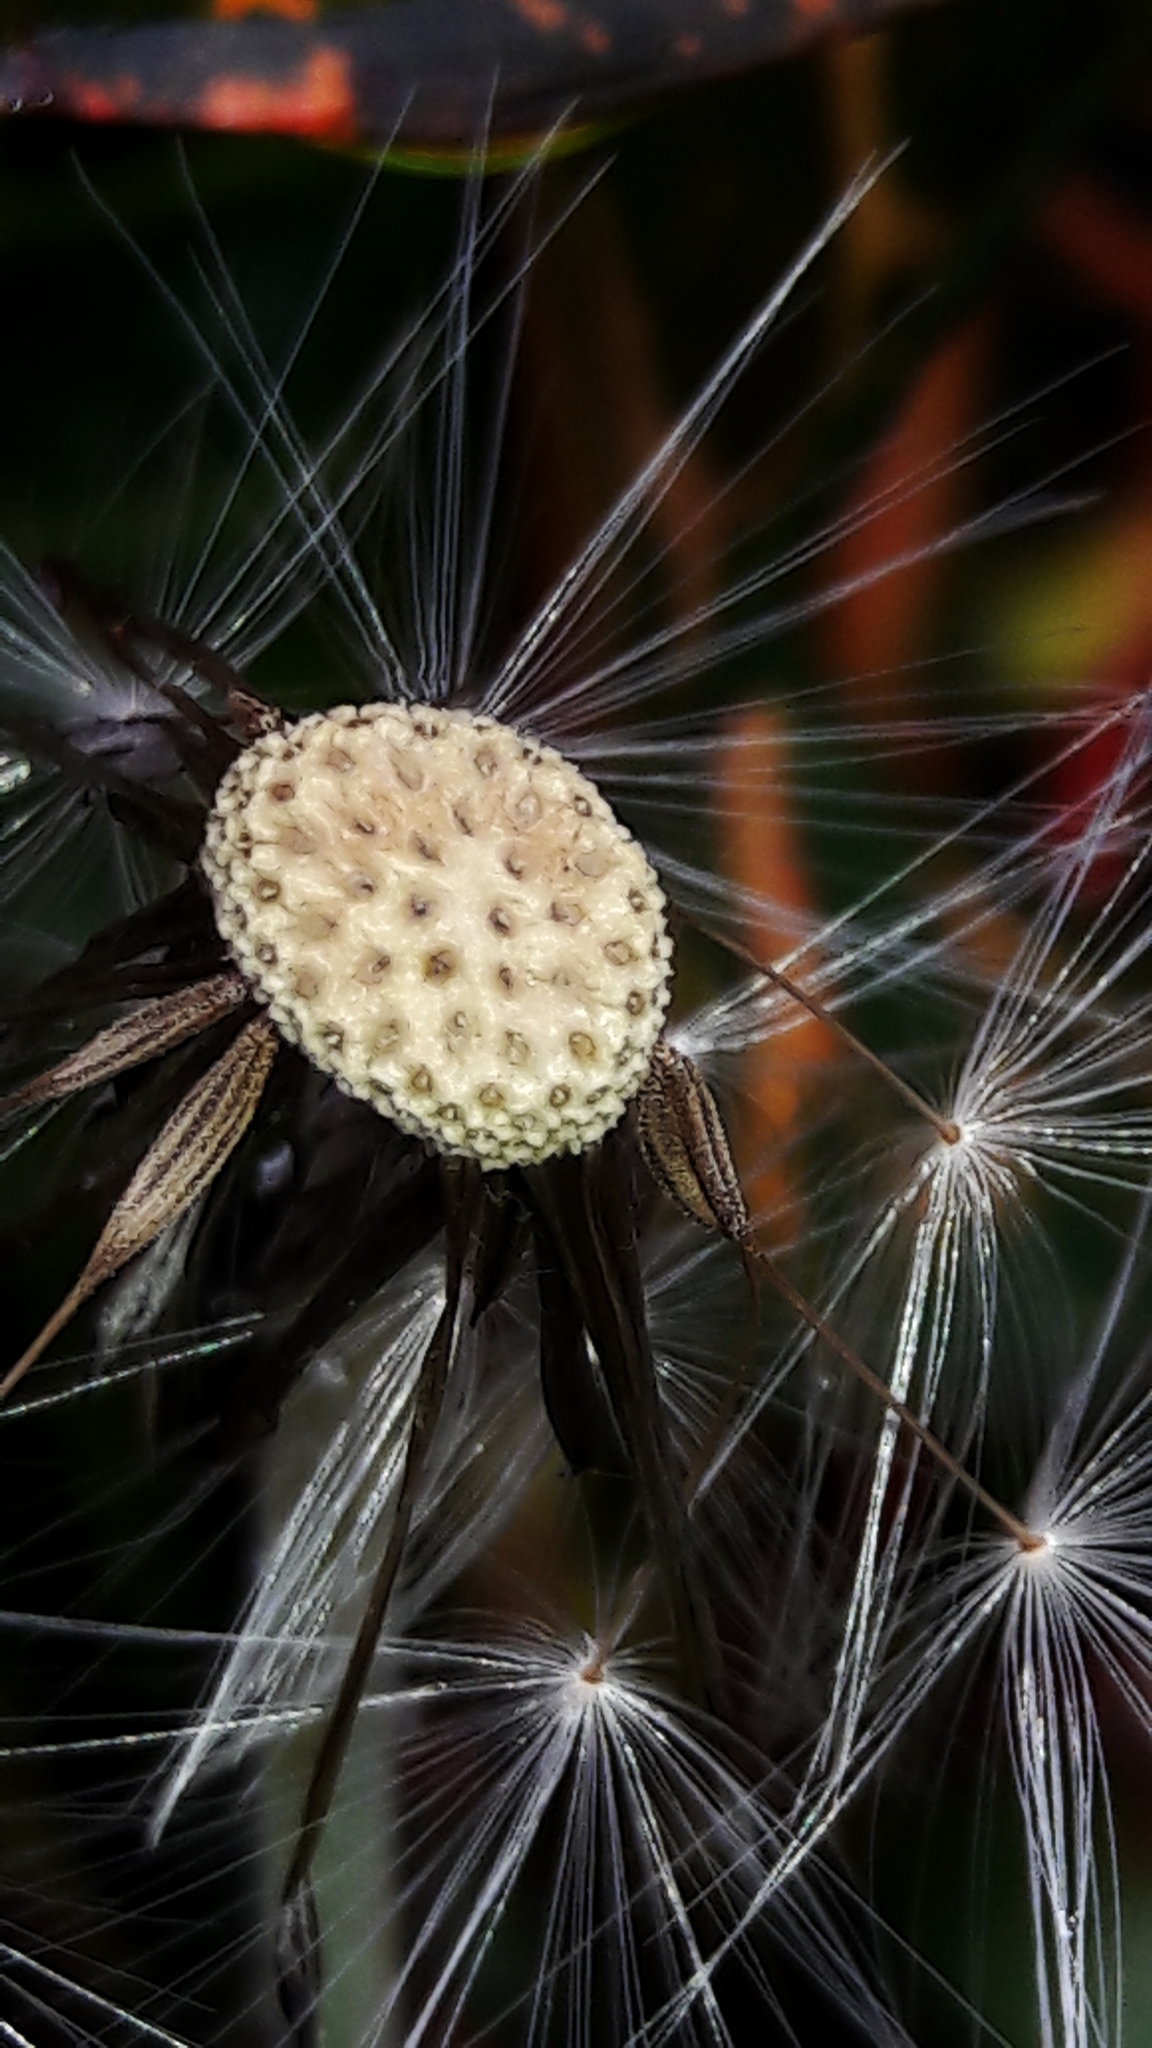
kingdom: Plantae
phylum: Tracheophyta
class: Magnoliopsida
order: Asterales
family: Asteraceae
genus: Chaptalia
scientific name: Chaptalia nutans
